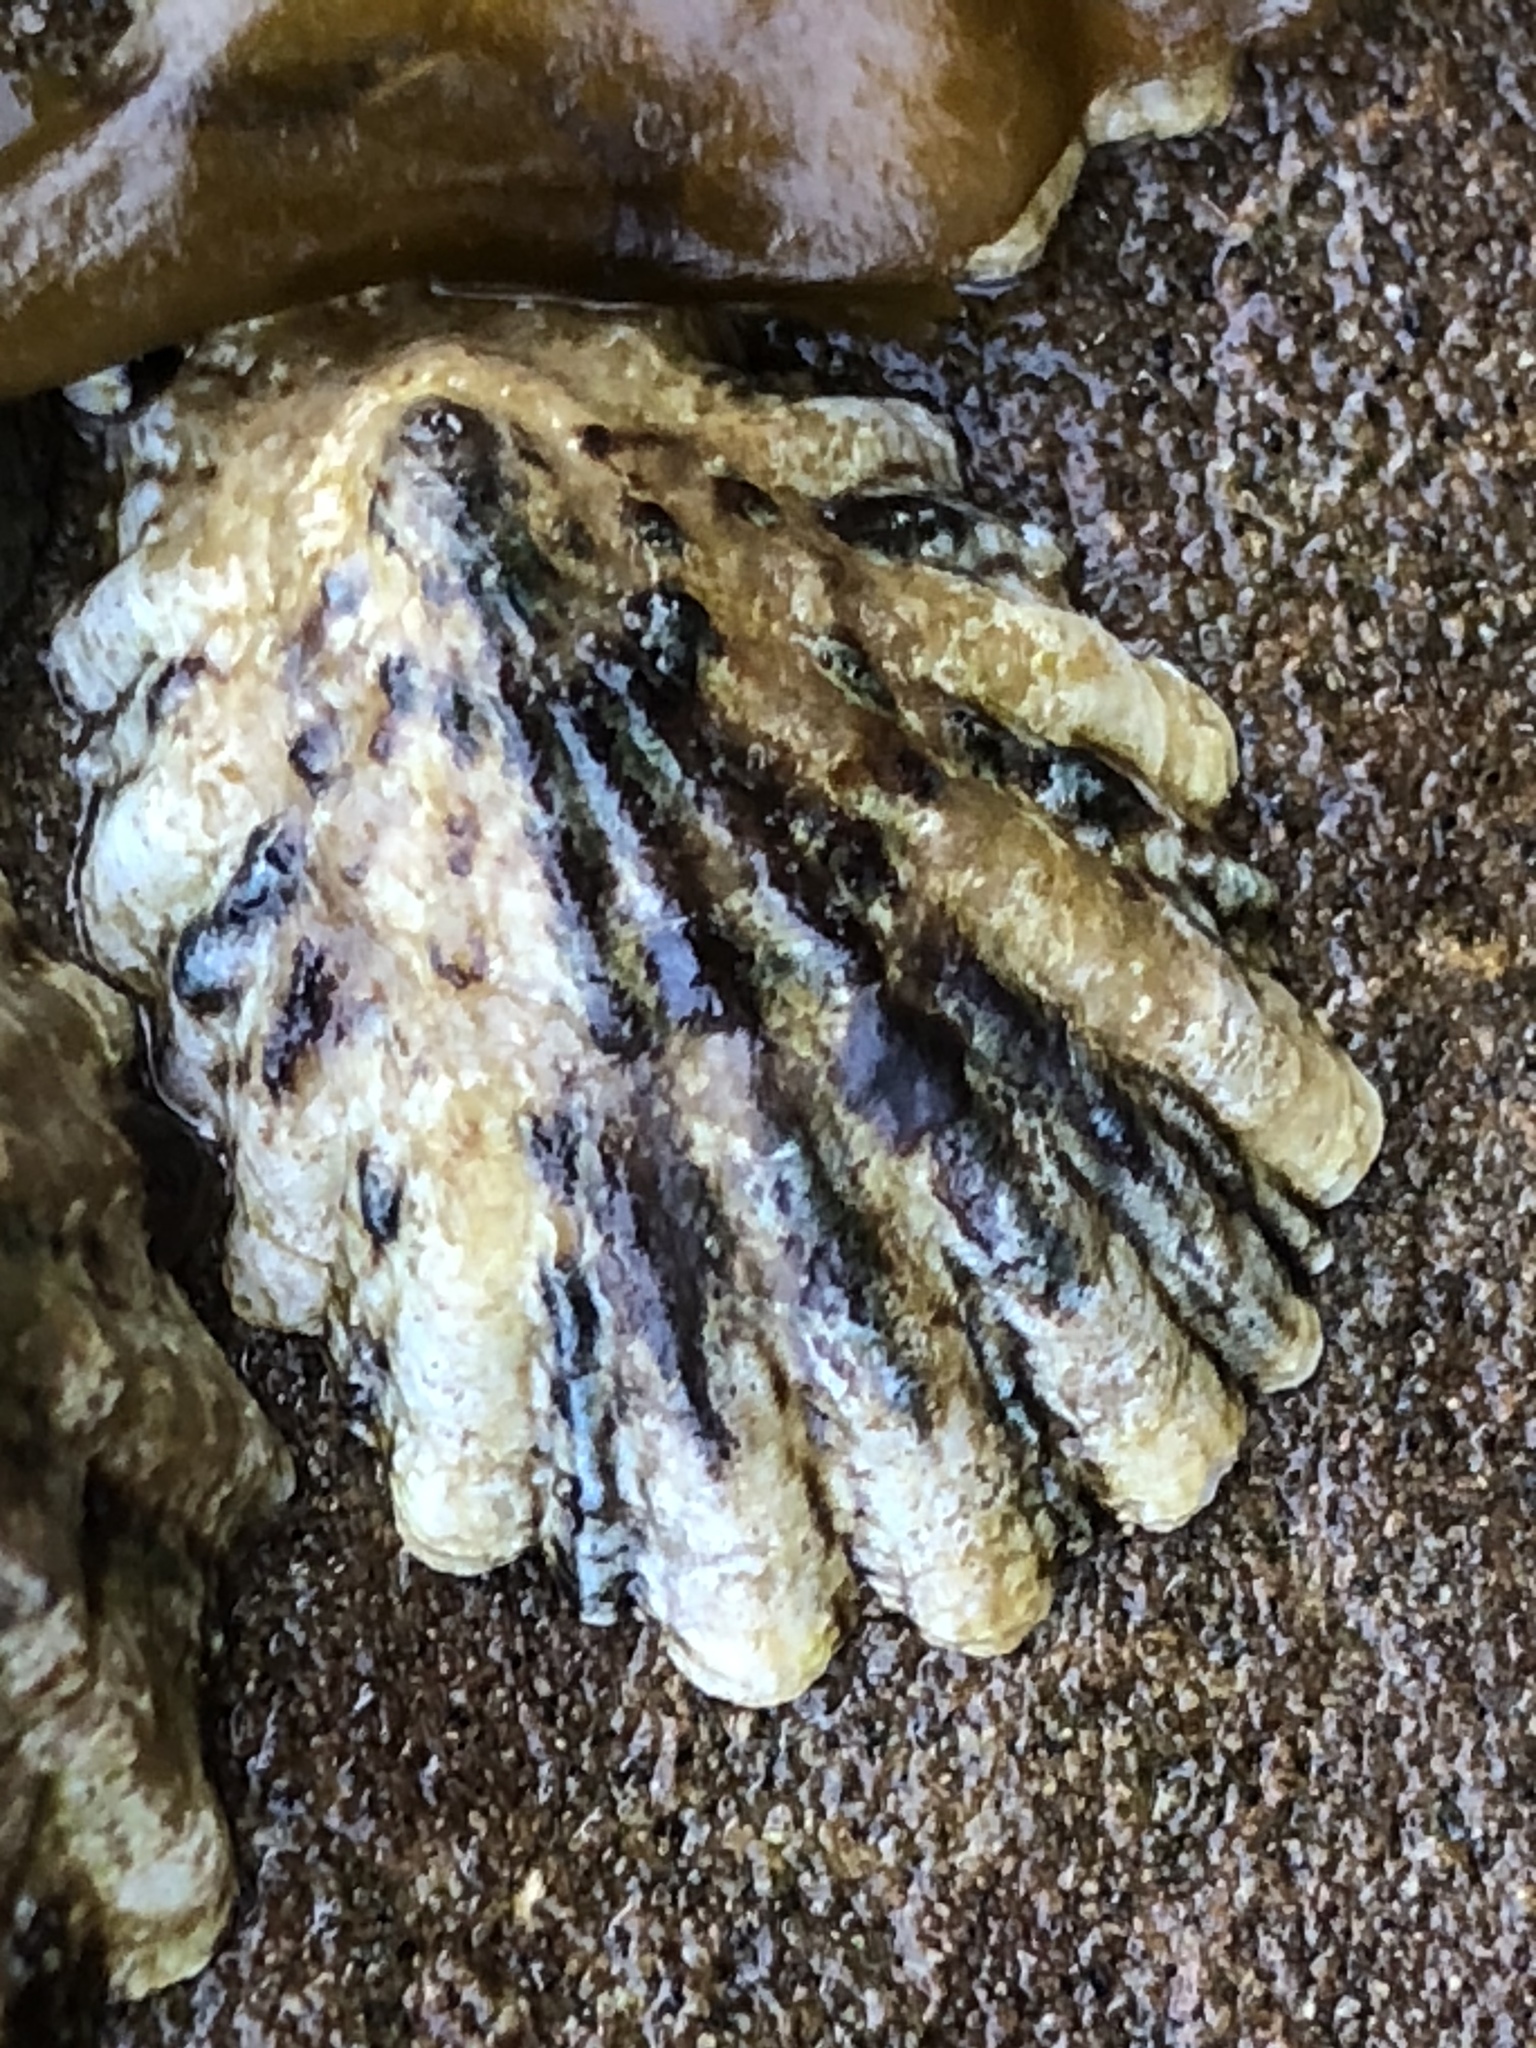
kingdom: Animalia
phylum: Mollusca
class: Gastropoda
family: Lottiidae
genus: Lottia
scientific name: Lottia scabra
